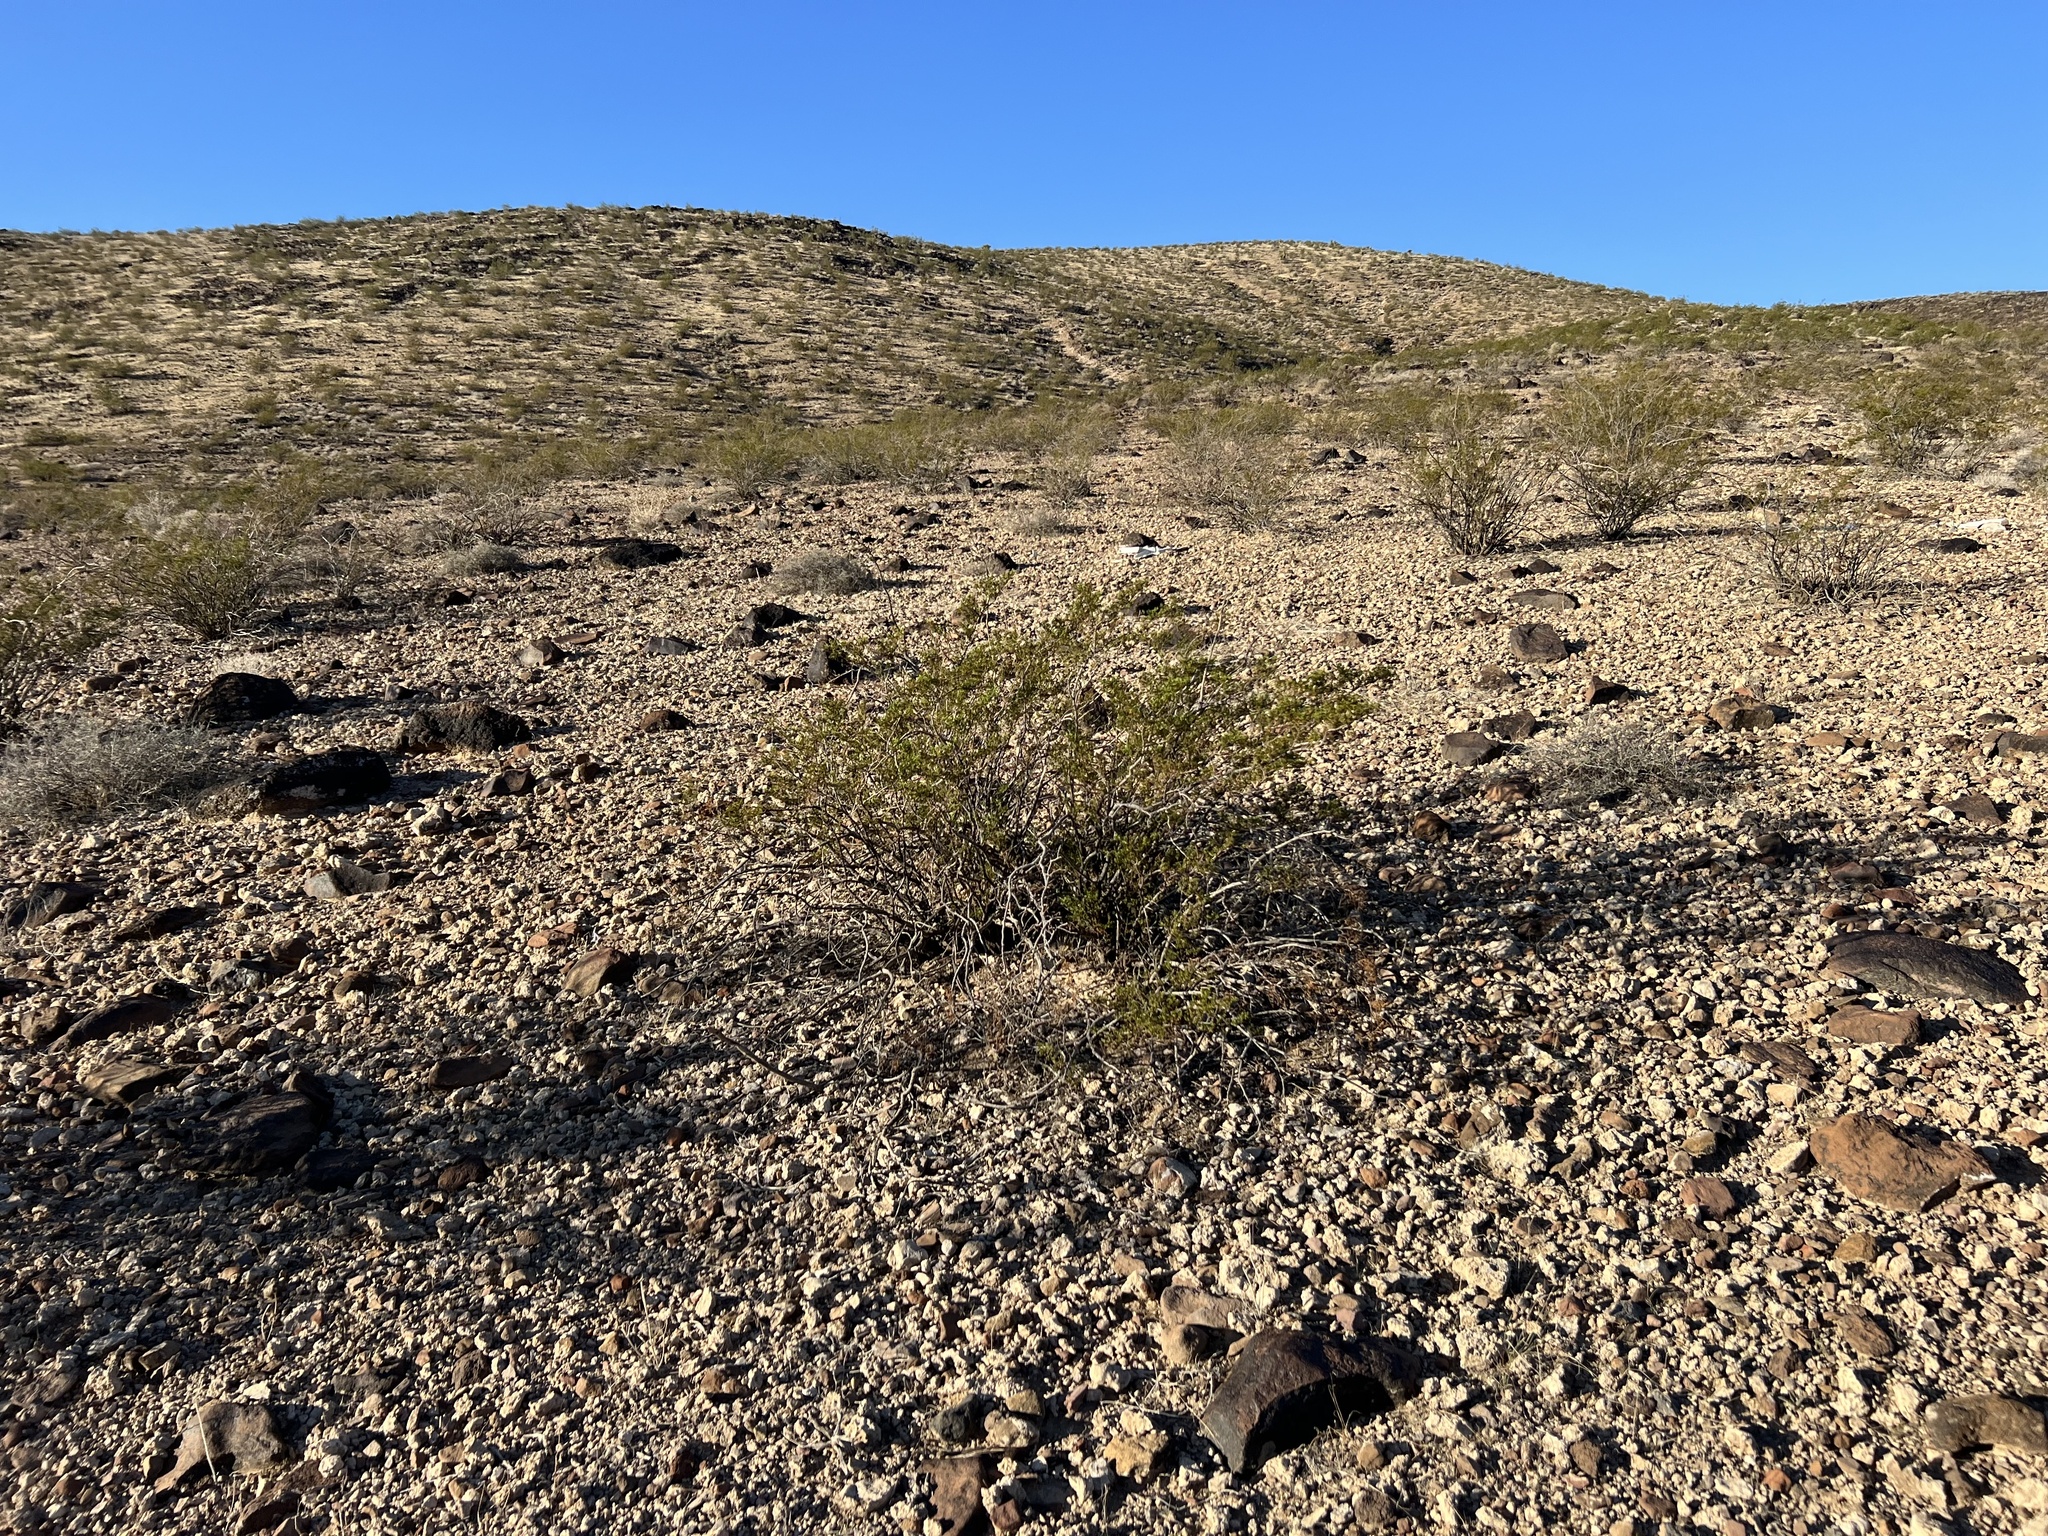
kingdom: Plantae
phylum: Tracheophyta
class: Magnoliopsida
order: Zygophyllales
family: Zygophyllaceae
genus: Larrea
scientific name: Larrea tridentata
